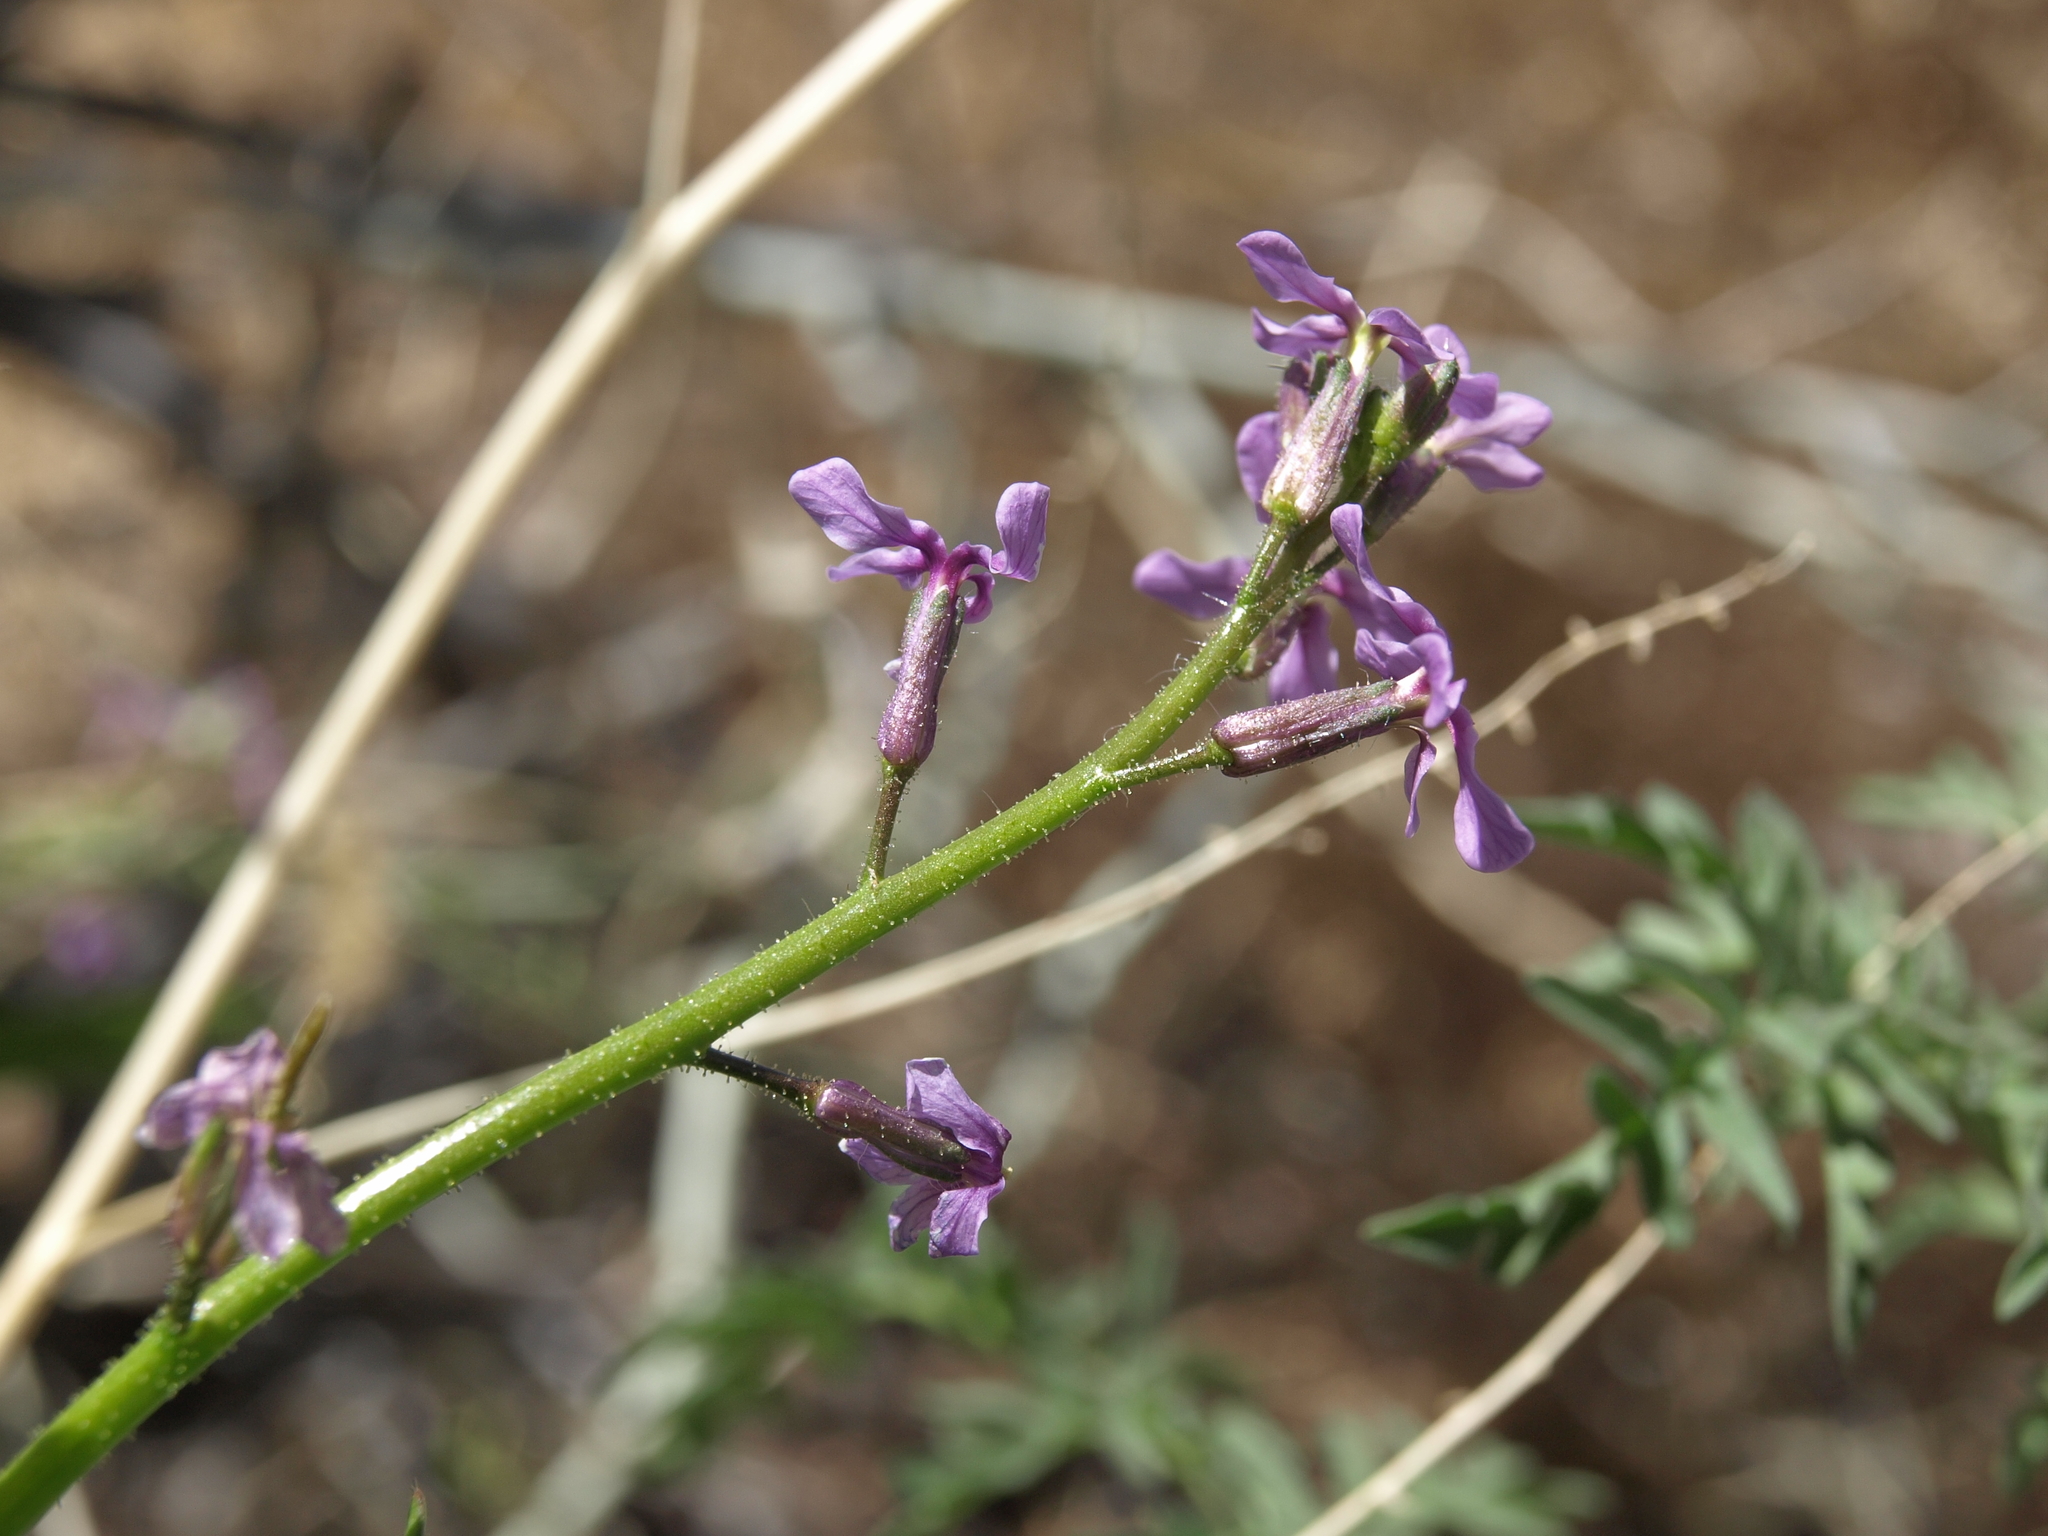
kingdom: Plantae
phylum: Tracheophyta
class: Magnoliopsida
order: Brassicales
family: Brassicaceae
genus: Chorispora
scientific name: Chorispora tenella
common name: Crossflower
